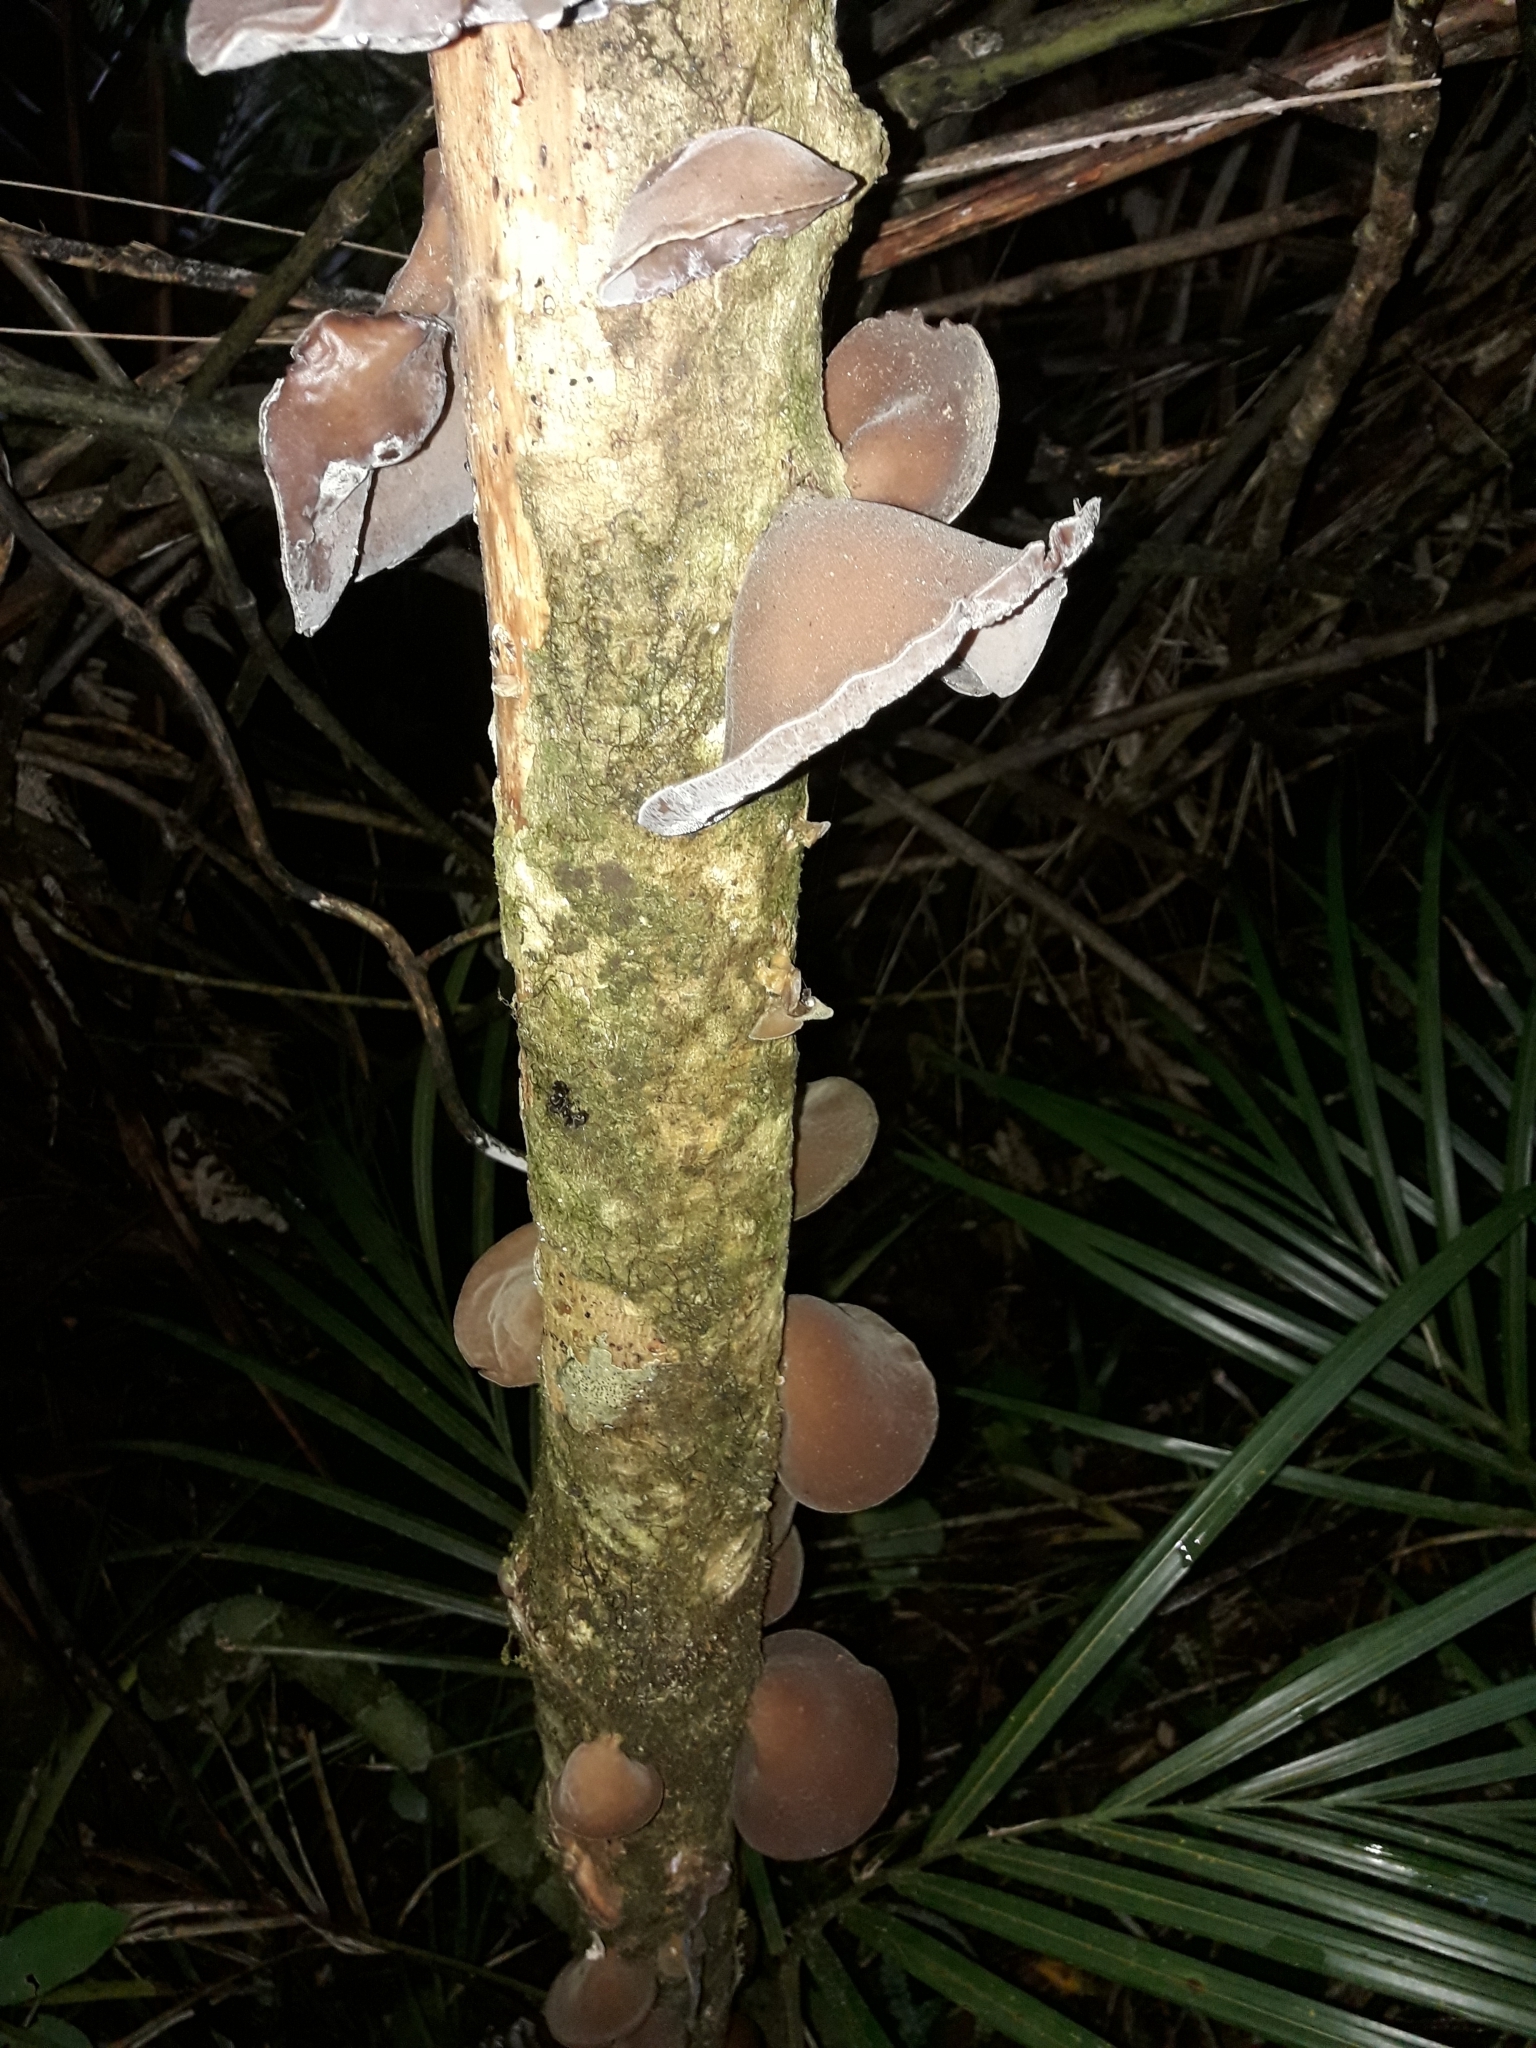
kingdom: Fungi
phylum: Basidiomycota
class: Agaricomycetes
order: Auriculariales
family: Auriculariaceae
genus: Auricularia
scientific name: Auricularia cornea
